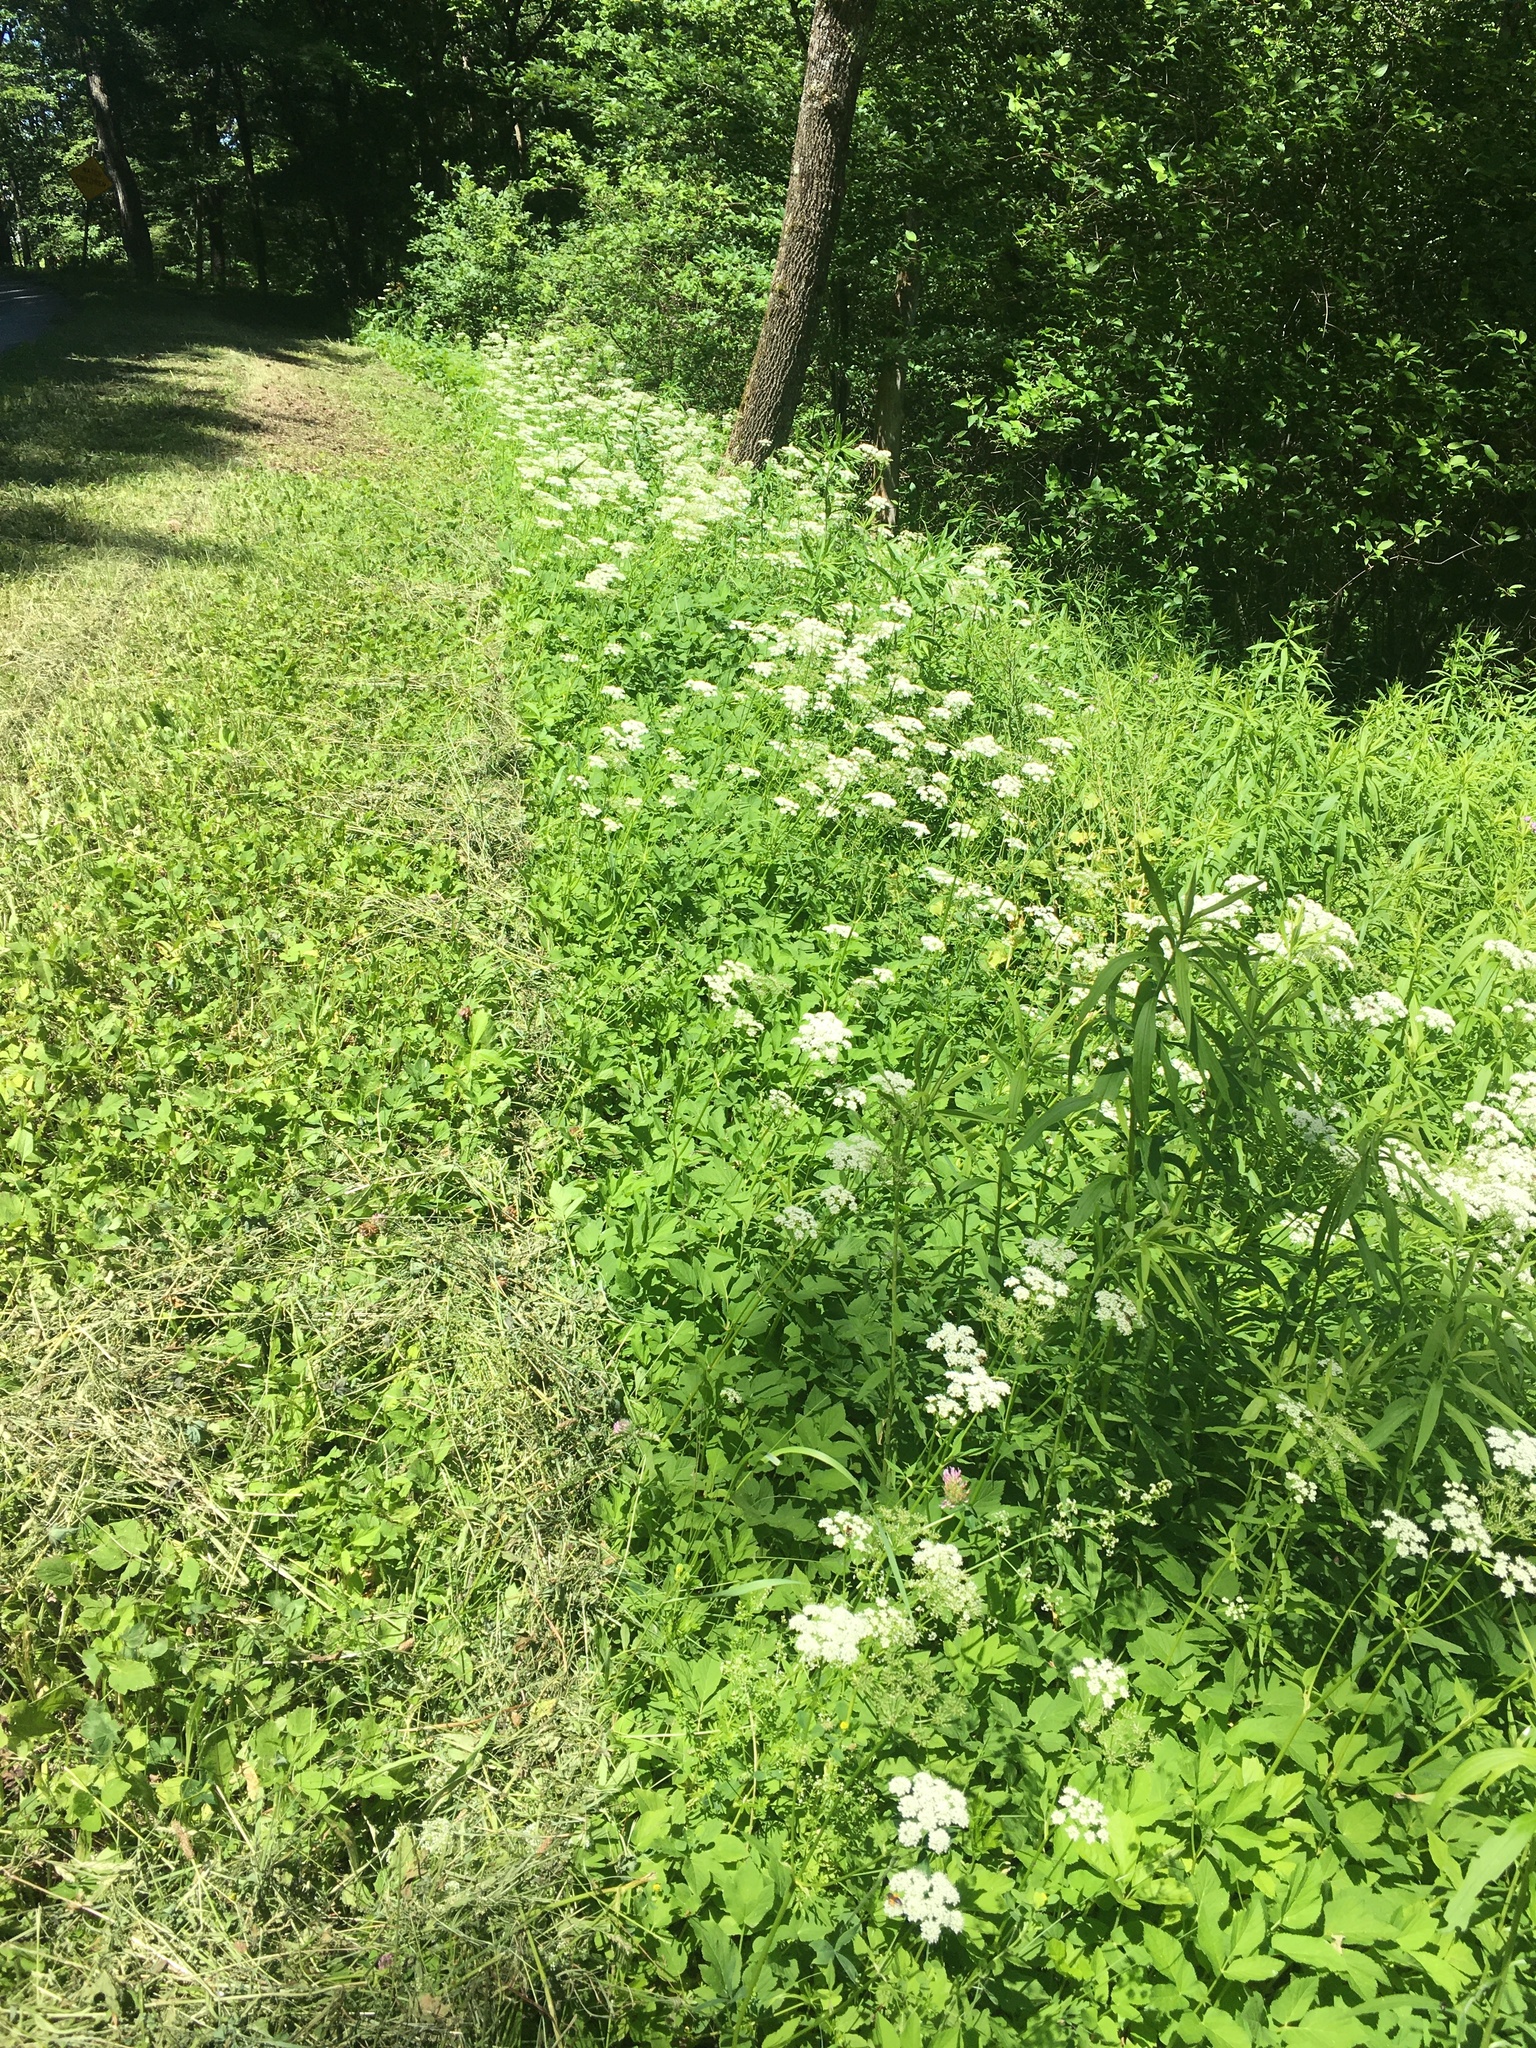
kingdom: Plantae
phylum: Tracheophyta
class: Magnoliopsida
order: Apiales
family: Apiaceae
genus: Aegopodium
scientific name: Aegopodium podagraria
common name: Ground-elder
